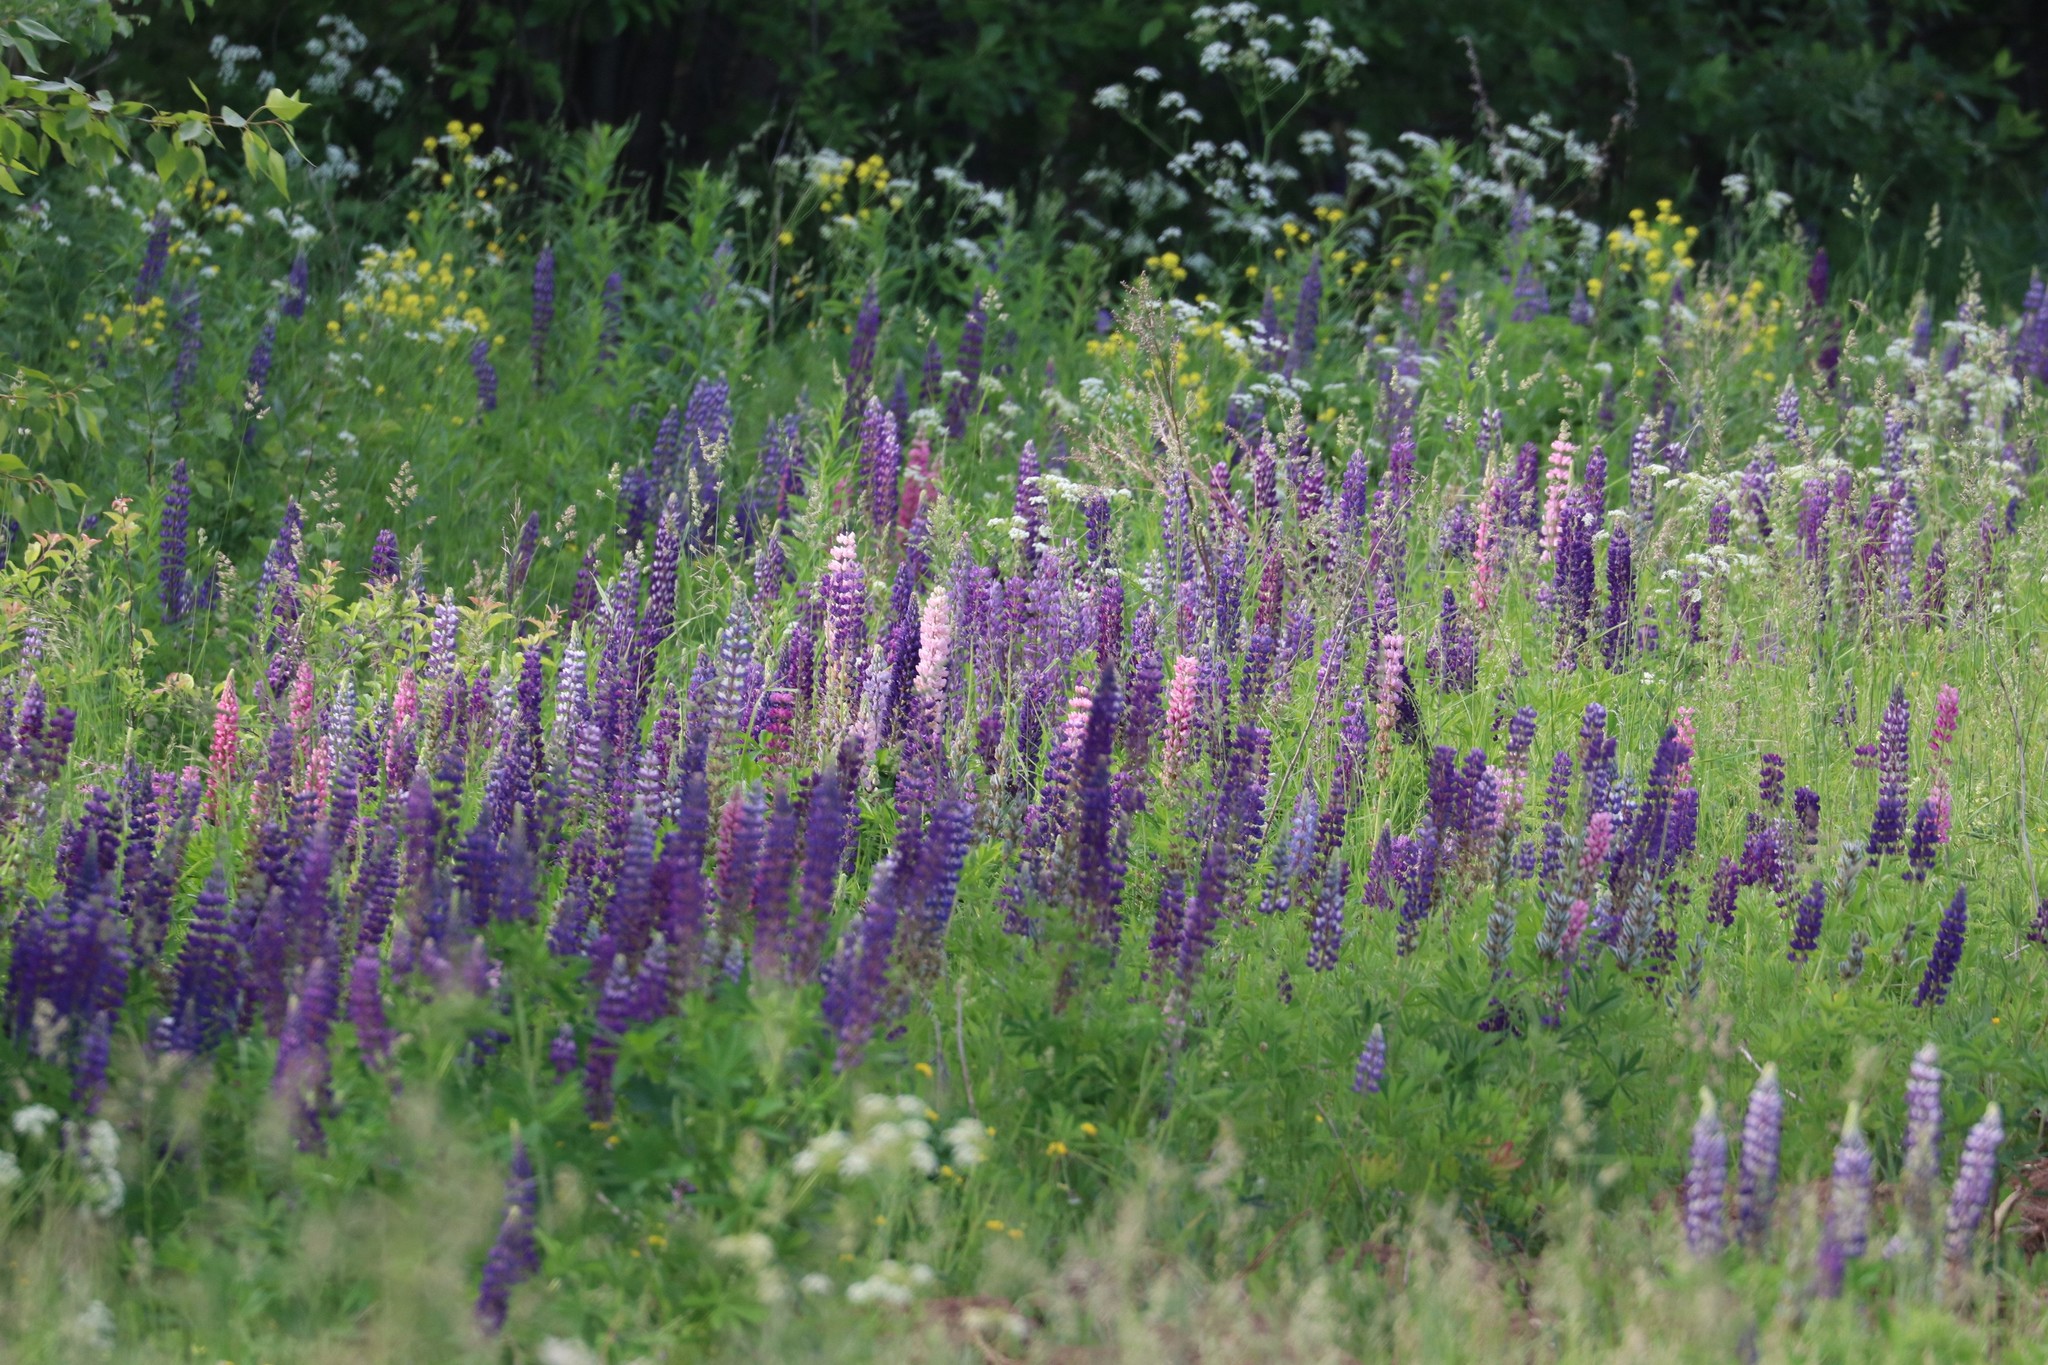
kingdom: Plantae
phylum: Tracheophyta
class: Magnoliopsida
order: Fabales
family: Fabaceae
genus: Lupinus
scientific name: Lupinus polyphyllus
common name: Garden lupin
